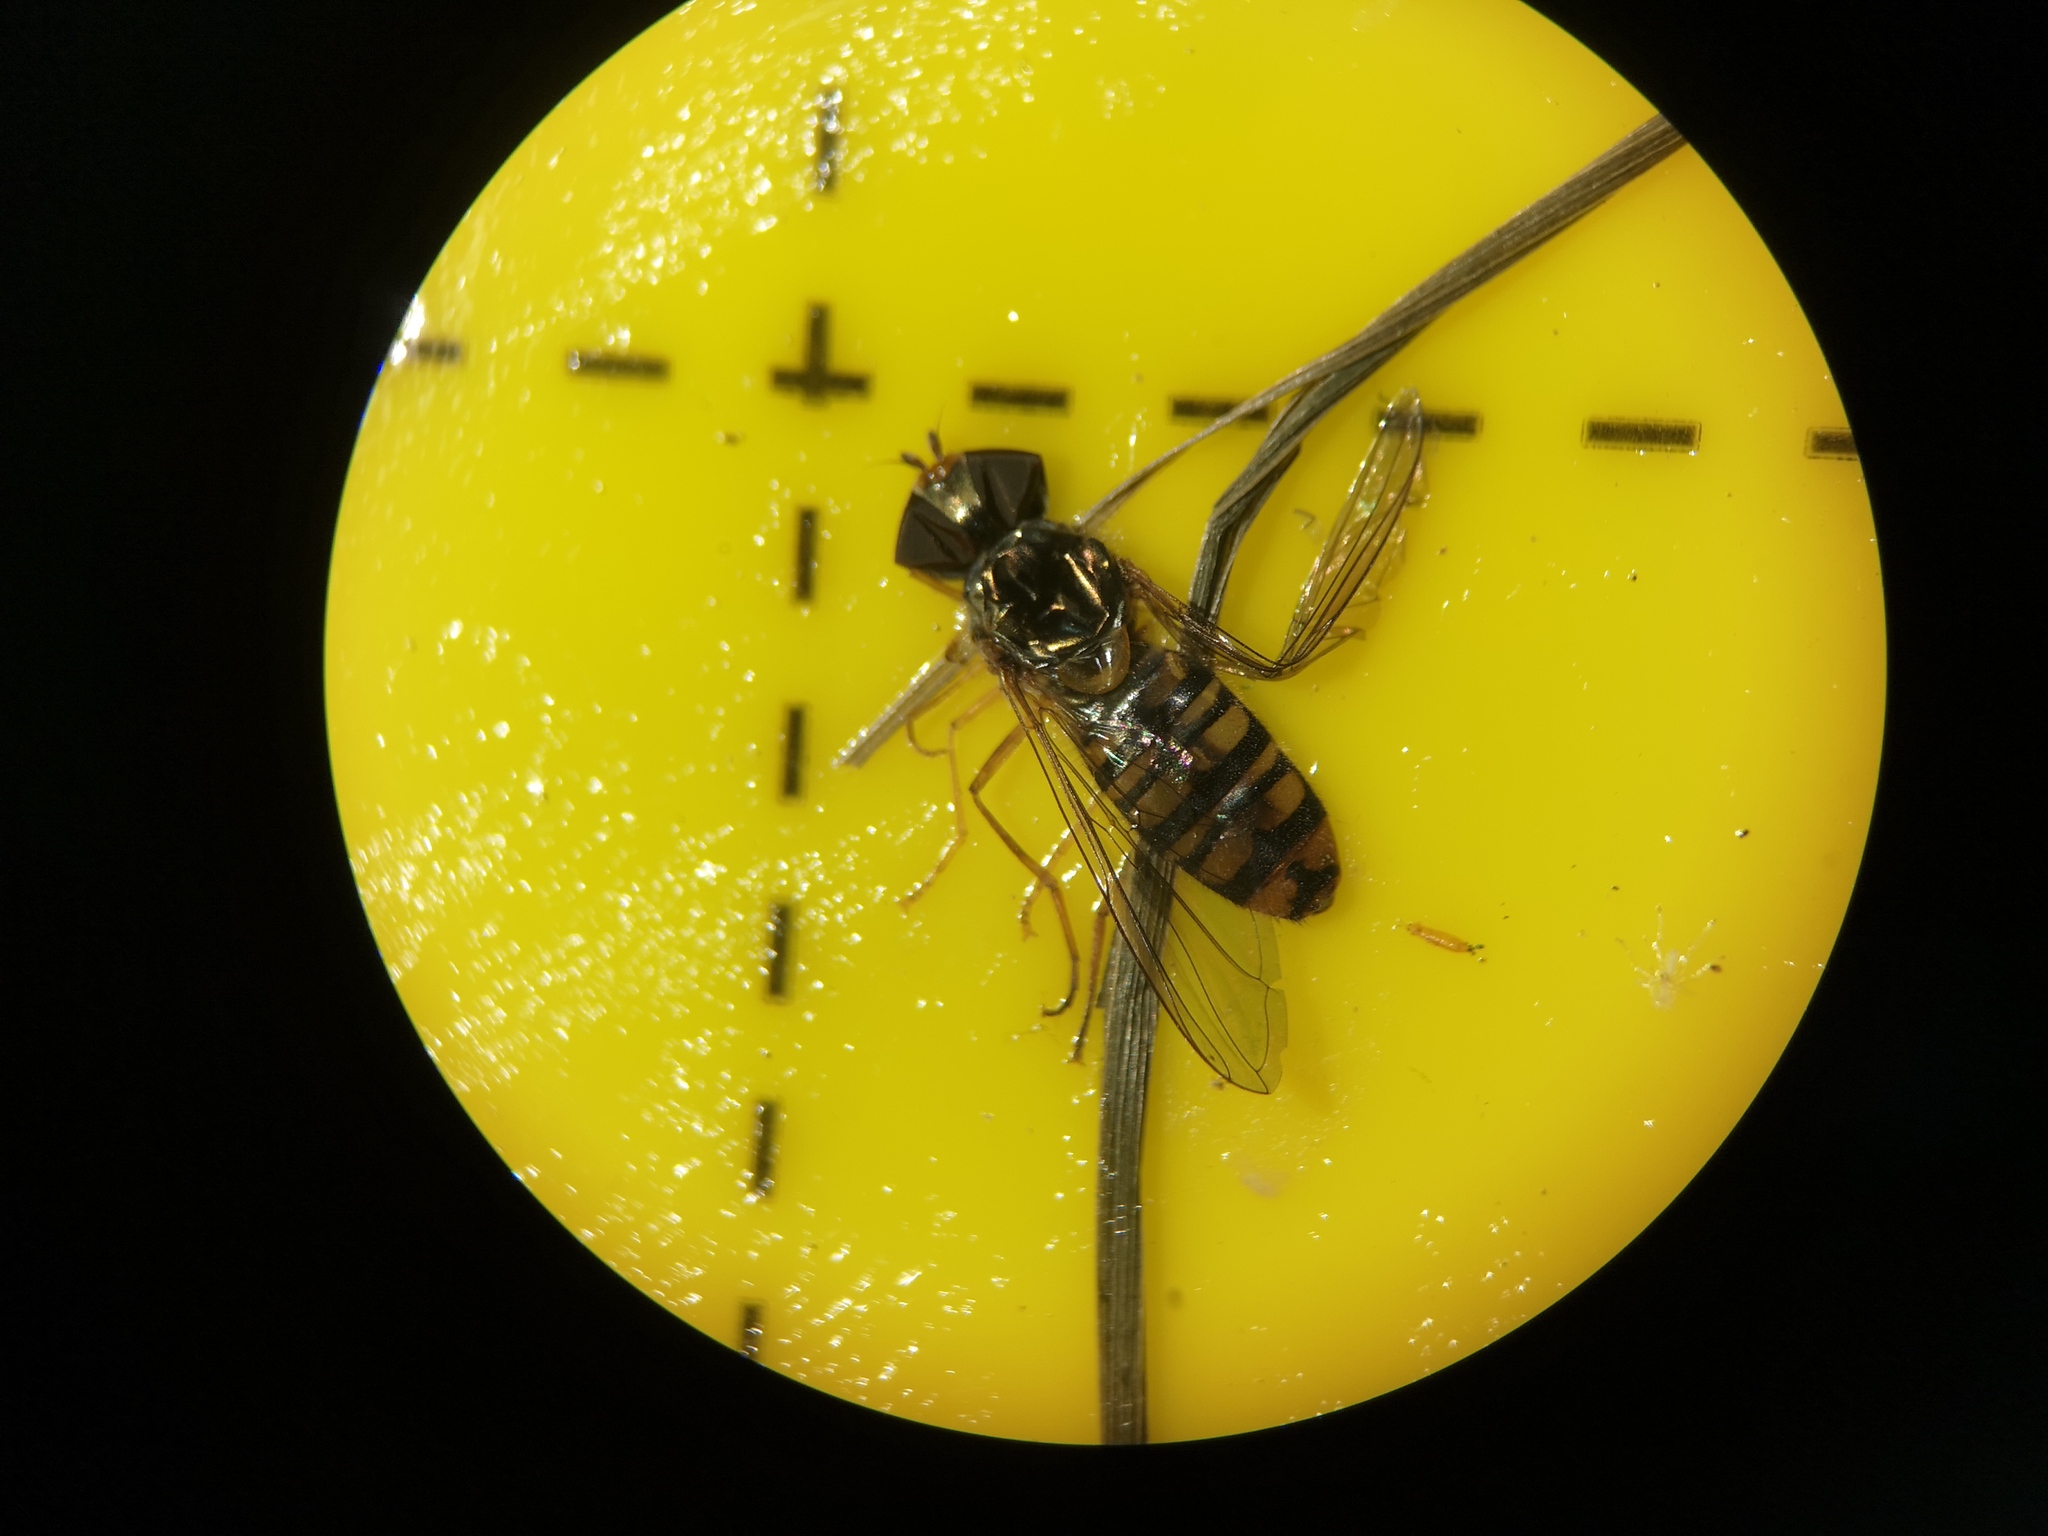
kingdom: Animalia
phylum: Arthropoda
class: Insecta
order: Diptera
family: Syrphidae
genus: Episyrphus
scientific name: Episyrphus balteatus
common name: Marmalade hoverfly
